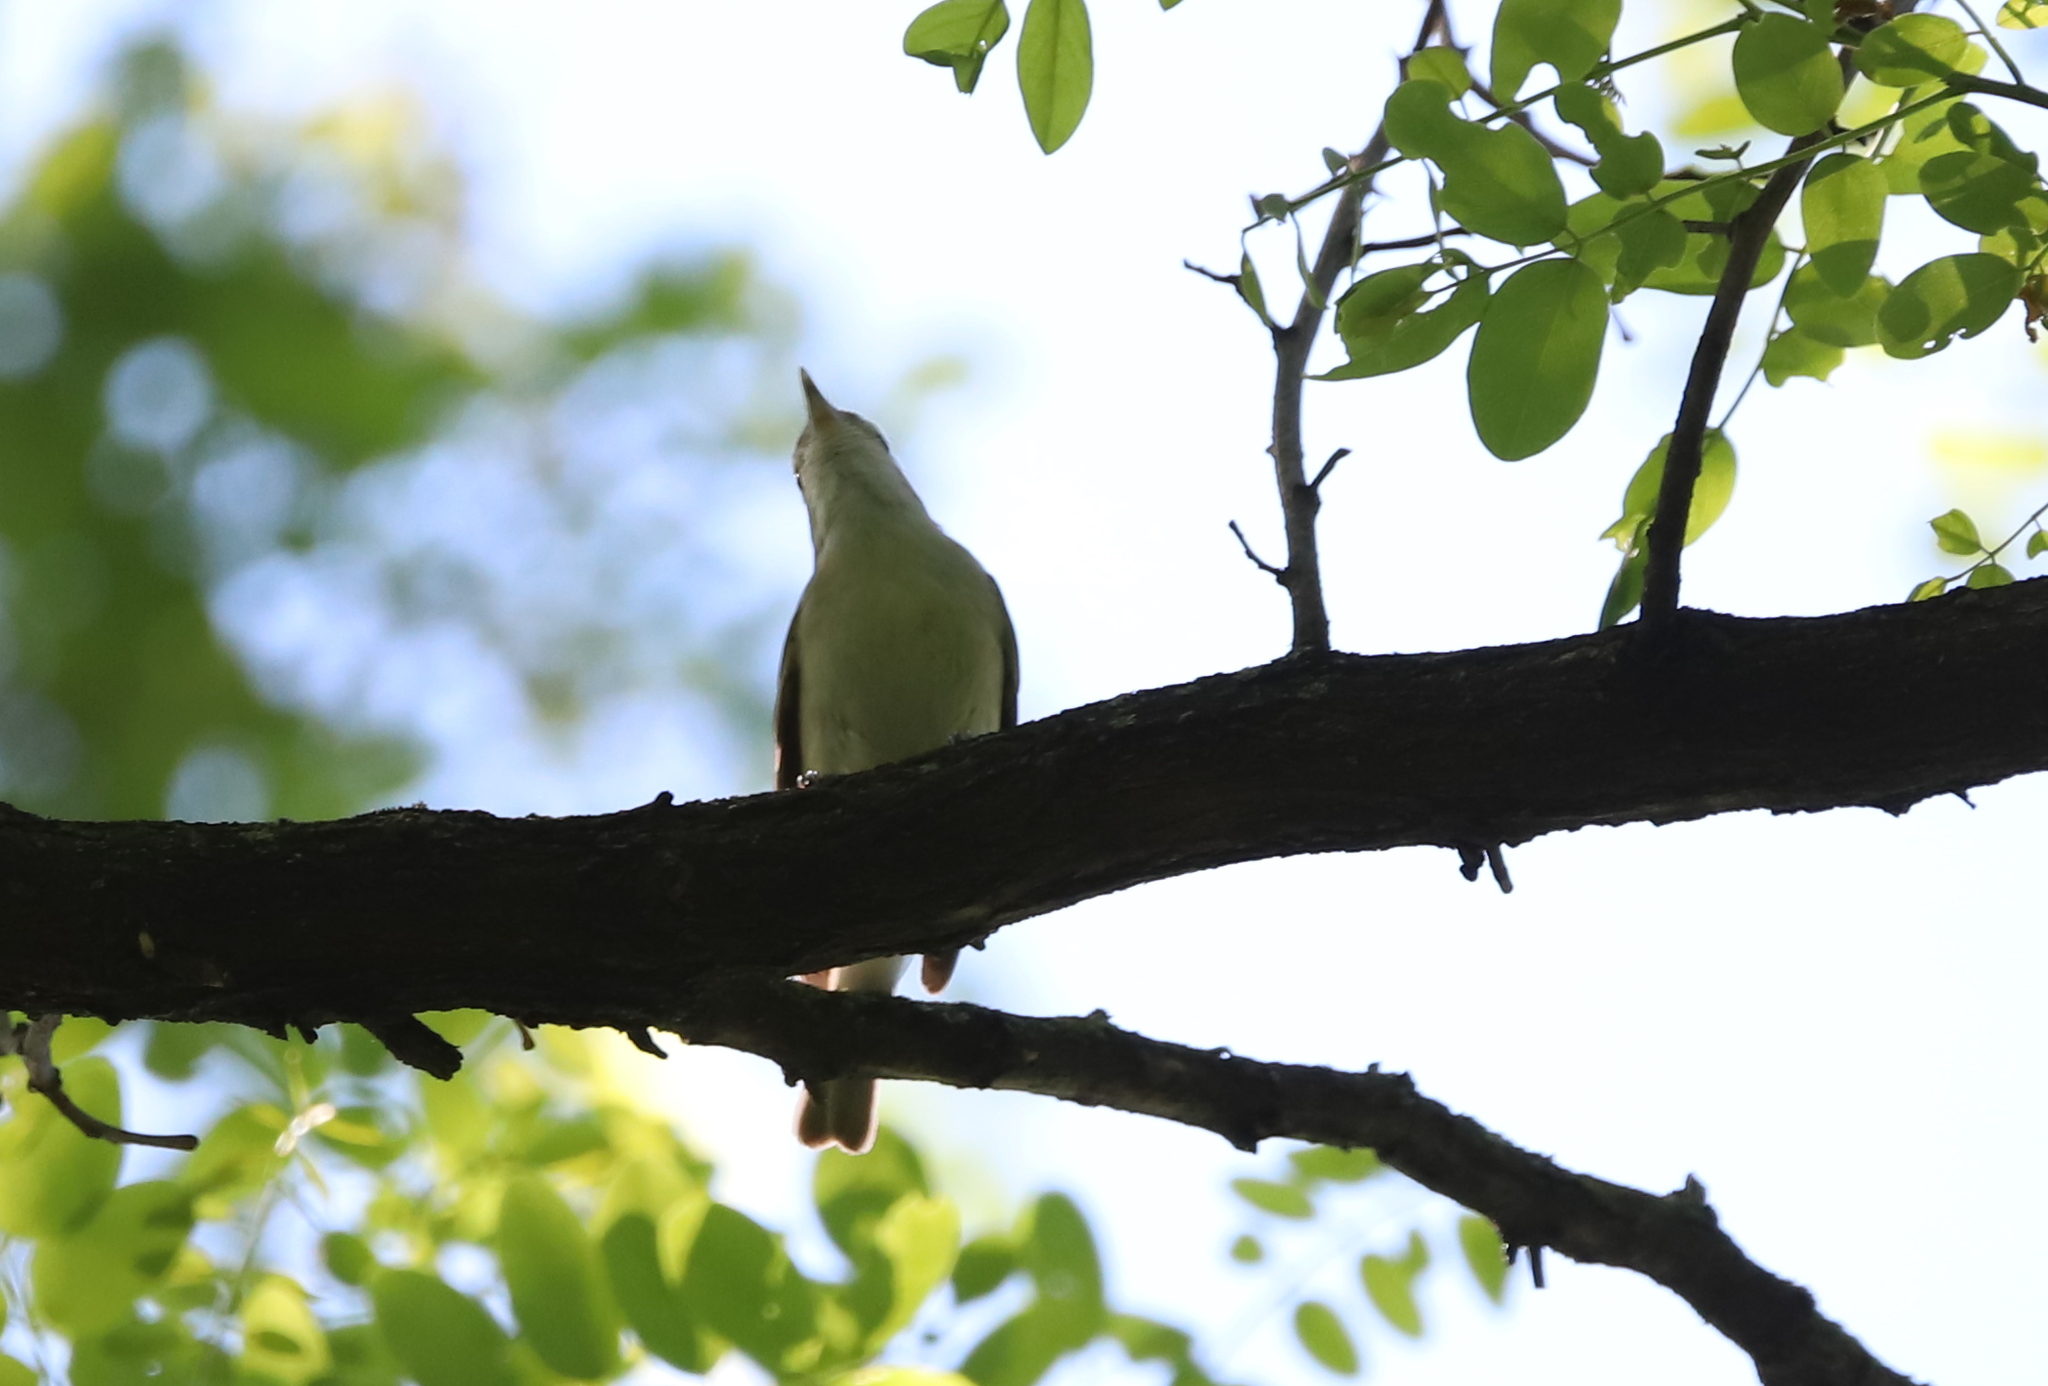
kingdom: Animalia
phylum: Chordata
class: Aves
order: Passeriformes
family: Vireonidae
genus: Vireo
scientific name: Vireo gilvus
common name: Warbling vireo
